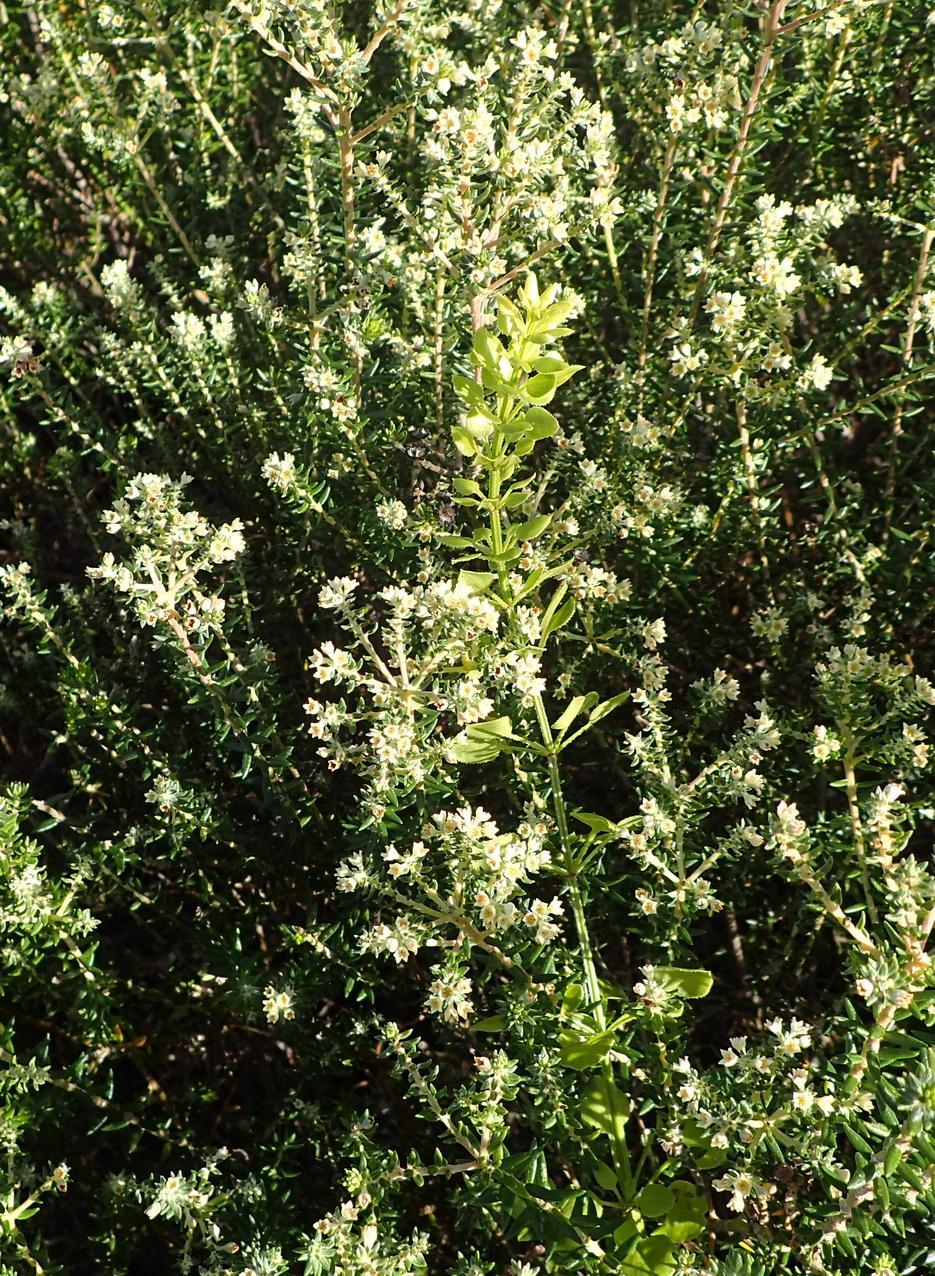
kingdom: Plantae
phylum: Tracheophyta
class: Magnoliopsida
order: Rosales
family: Rhamnaceae
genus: Phylica
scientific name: Phylica axillaris
